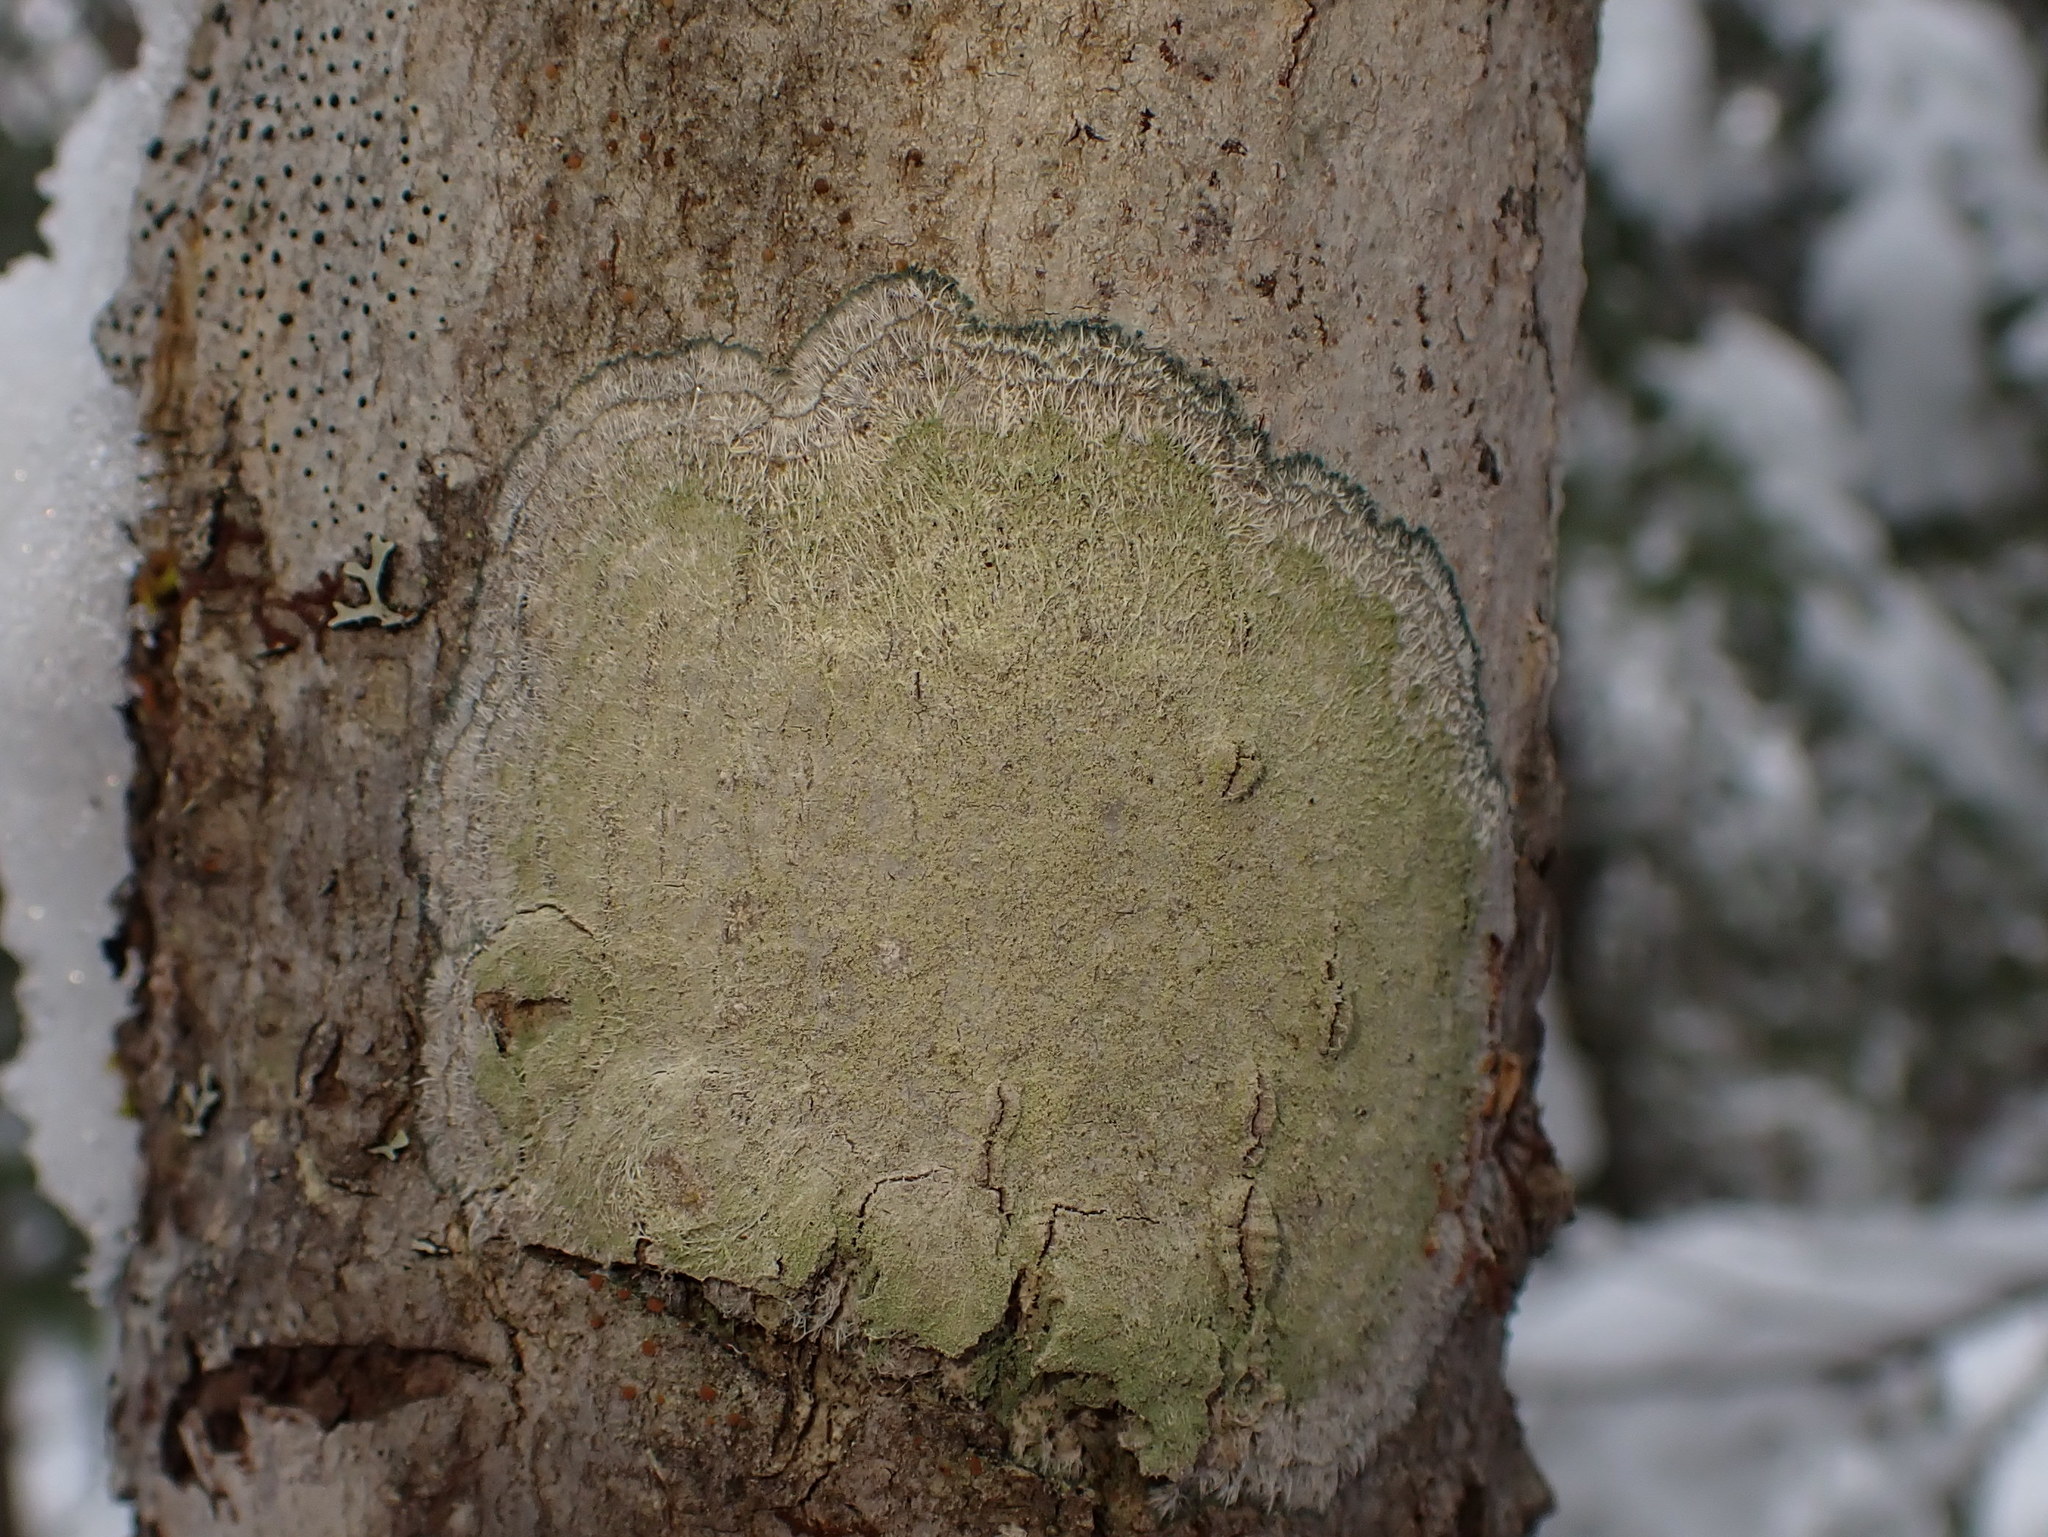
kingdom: Fungi
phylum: Ascomycota
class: Lecanoromycetes
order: Pertusariales
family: Pertusariaceae
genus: Verseghya
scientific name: Verseghya thysanophora
